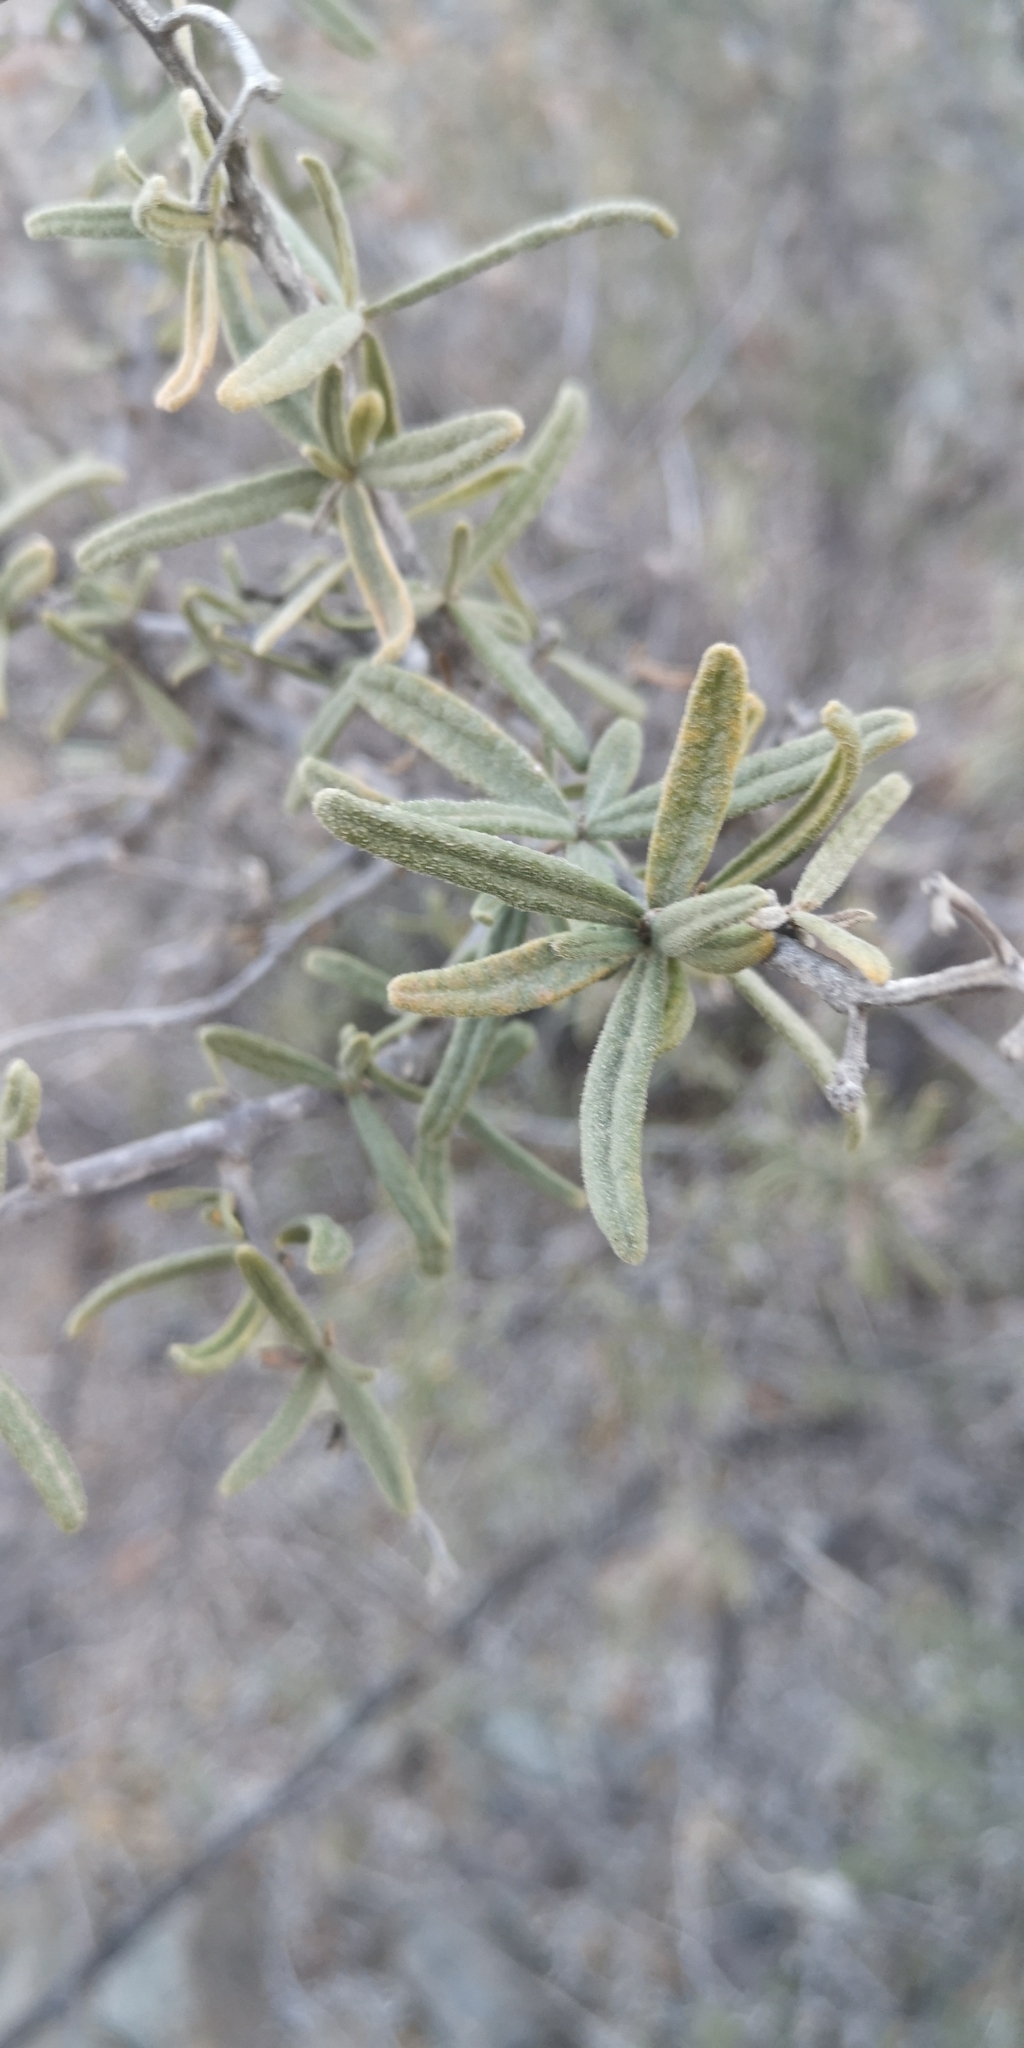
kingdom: Plantae
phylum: Tracheophyta
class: Magnoliopsida
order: Boraginales
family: Cordiaceae
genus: Cordia
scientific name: Cordia decandra
